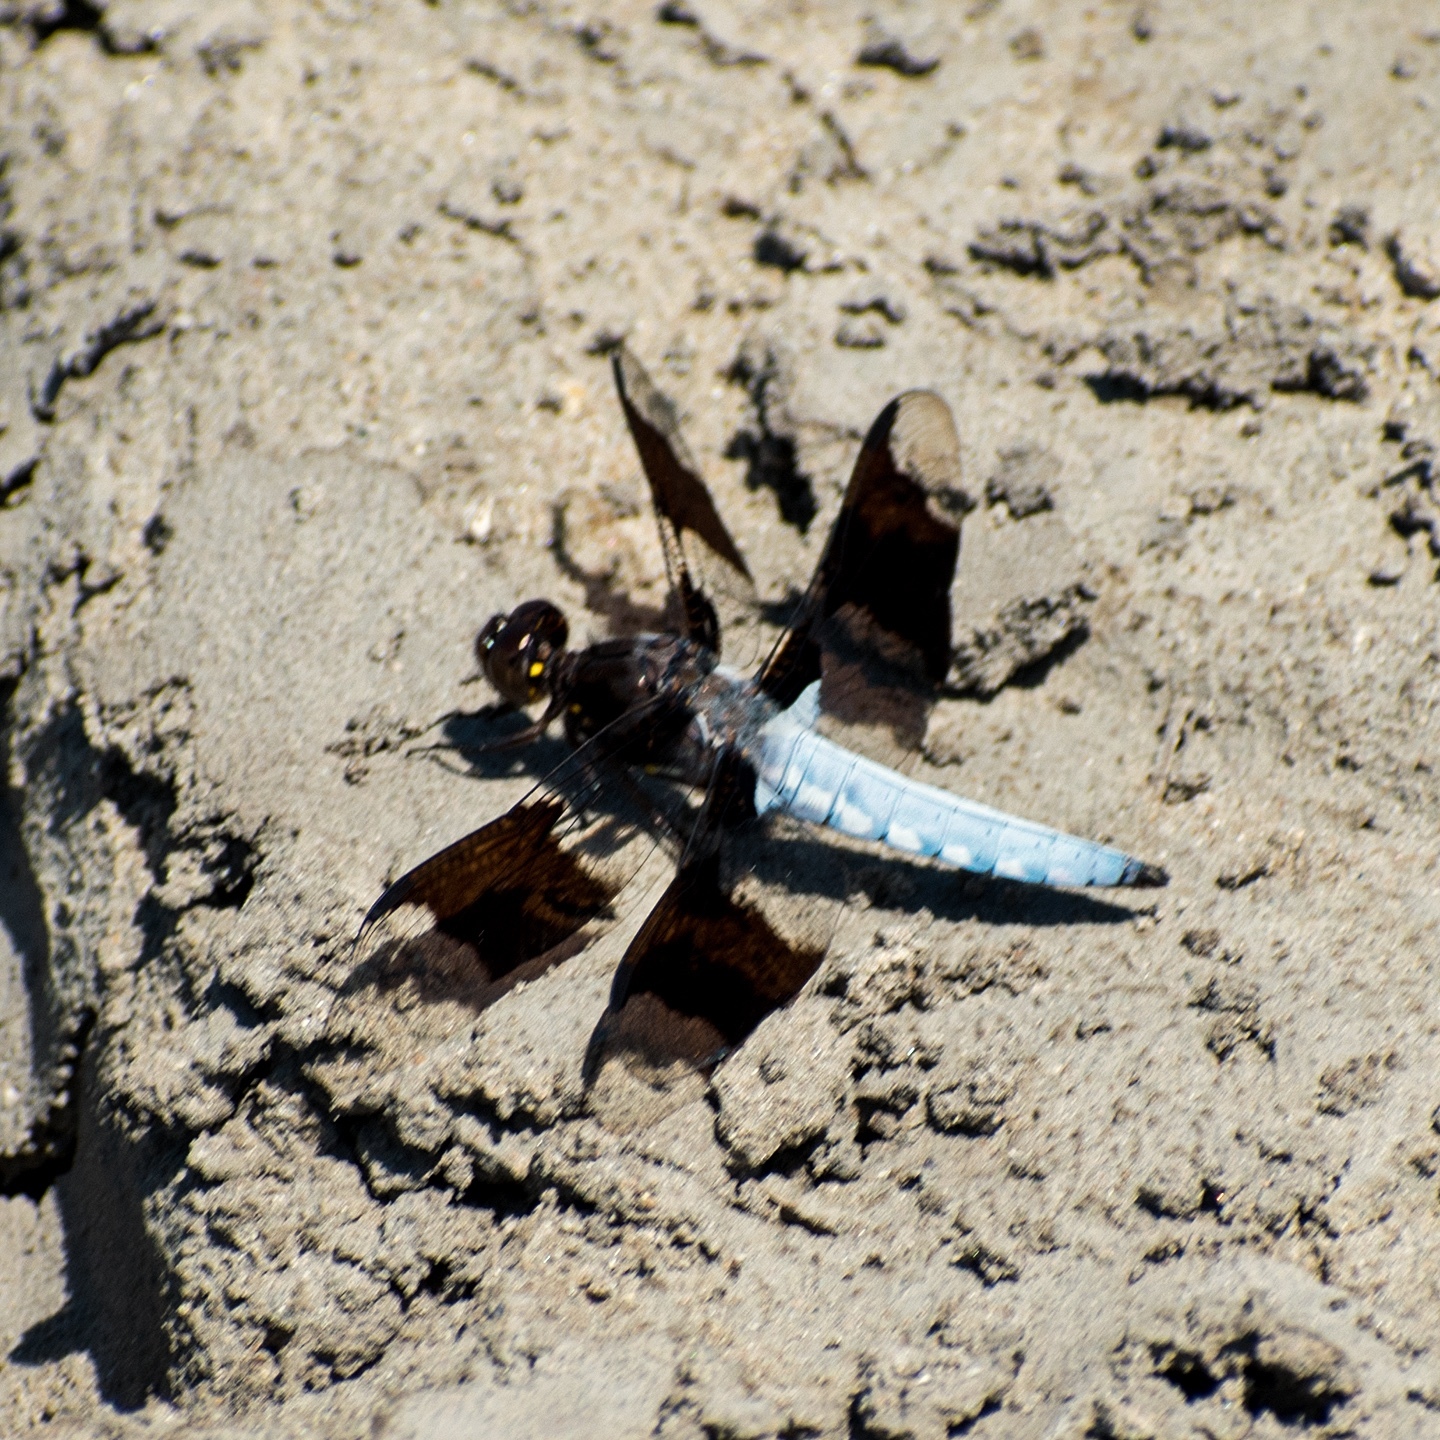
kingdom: Animalia
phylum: Arthropoda
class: Insecta
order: Odonata
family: Libellulidae
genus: Plathemis
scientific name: Plathemis lydia
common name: Common whitetail
